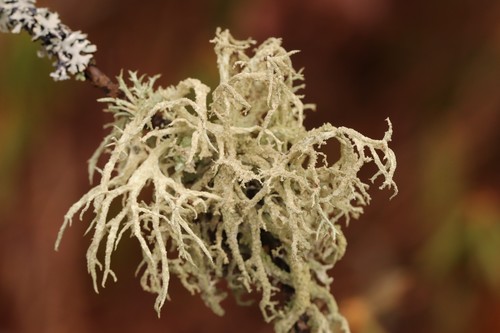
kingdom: Fungi
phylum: Ascomycota
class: Lecanoromycetes
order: Lecanorales
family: Parmeliaceae
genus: Evernia
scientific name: Evernia prunastri
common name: Oak moss
